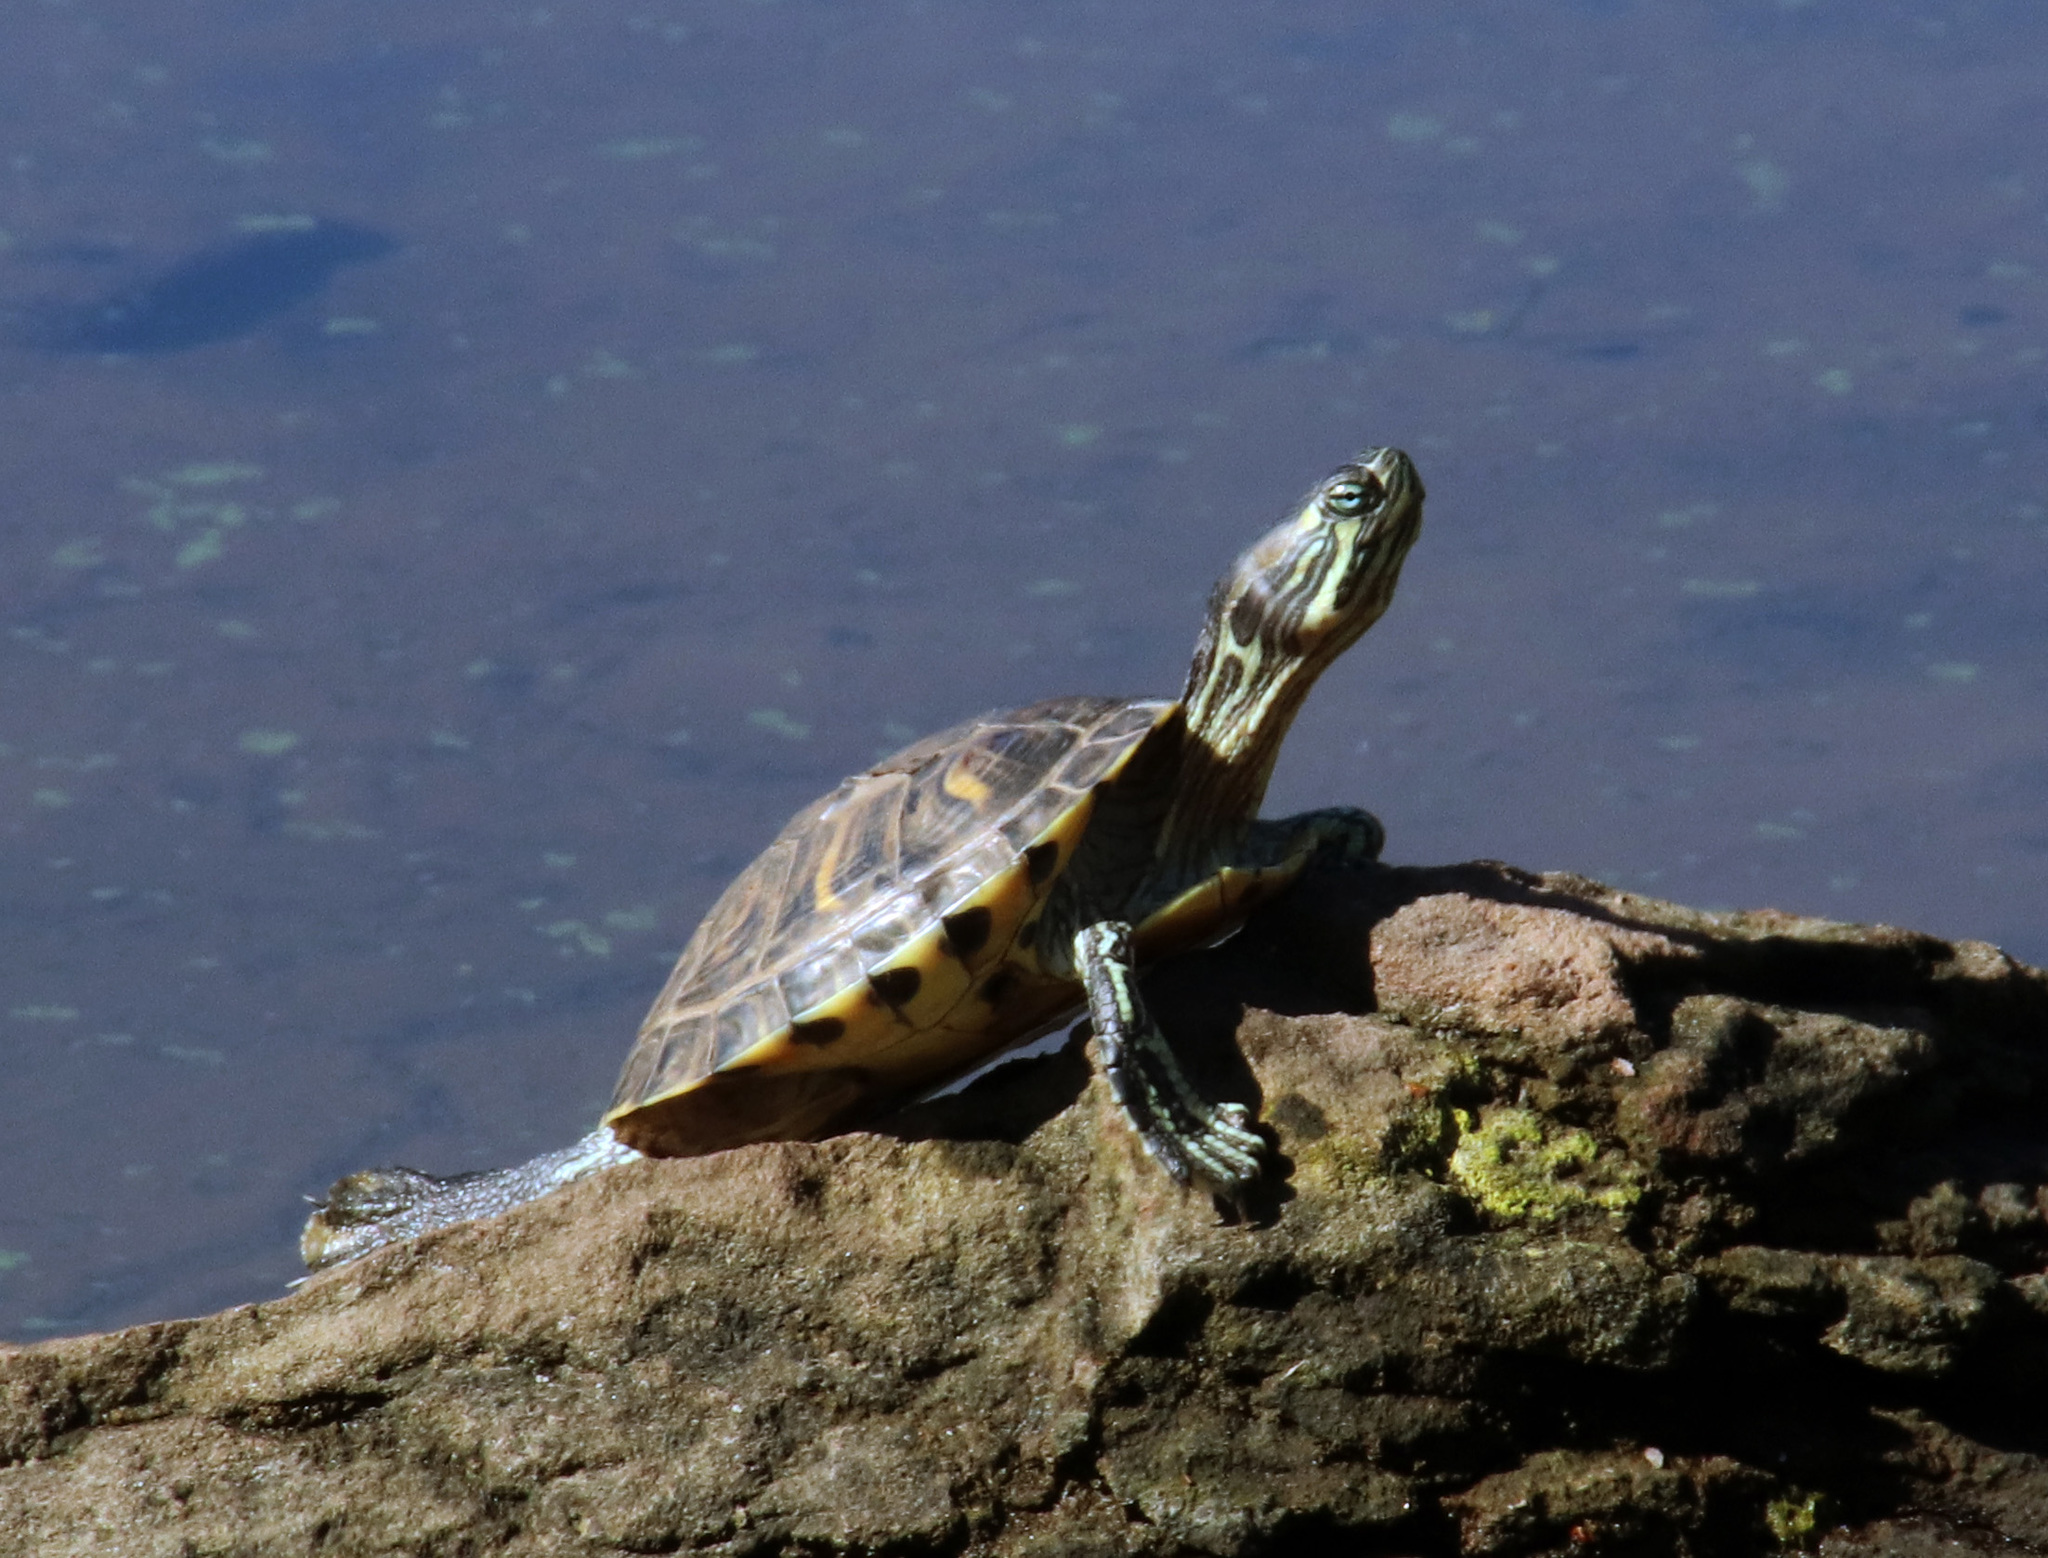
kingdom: Animalia
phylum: Chordata
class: Testudines
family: Emydidae
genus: Trachemys
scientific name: Trachemys scripta
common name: Slider
